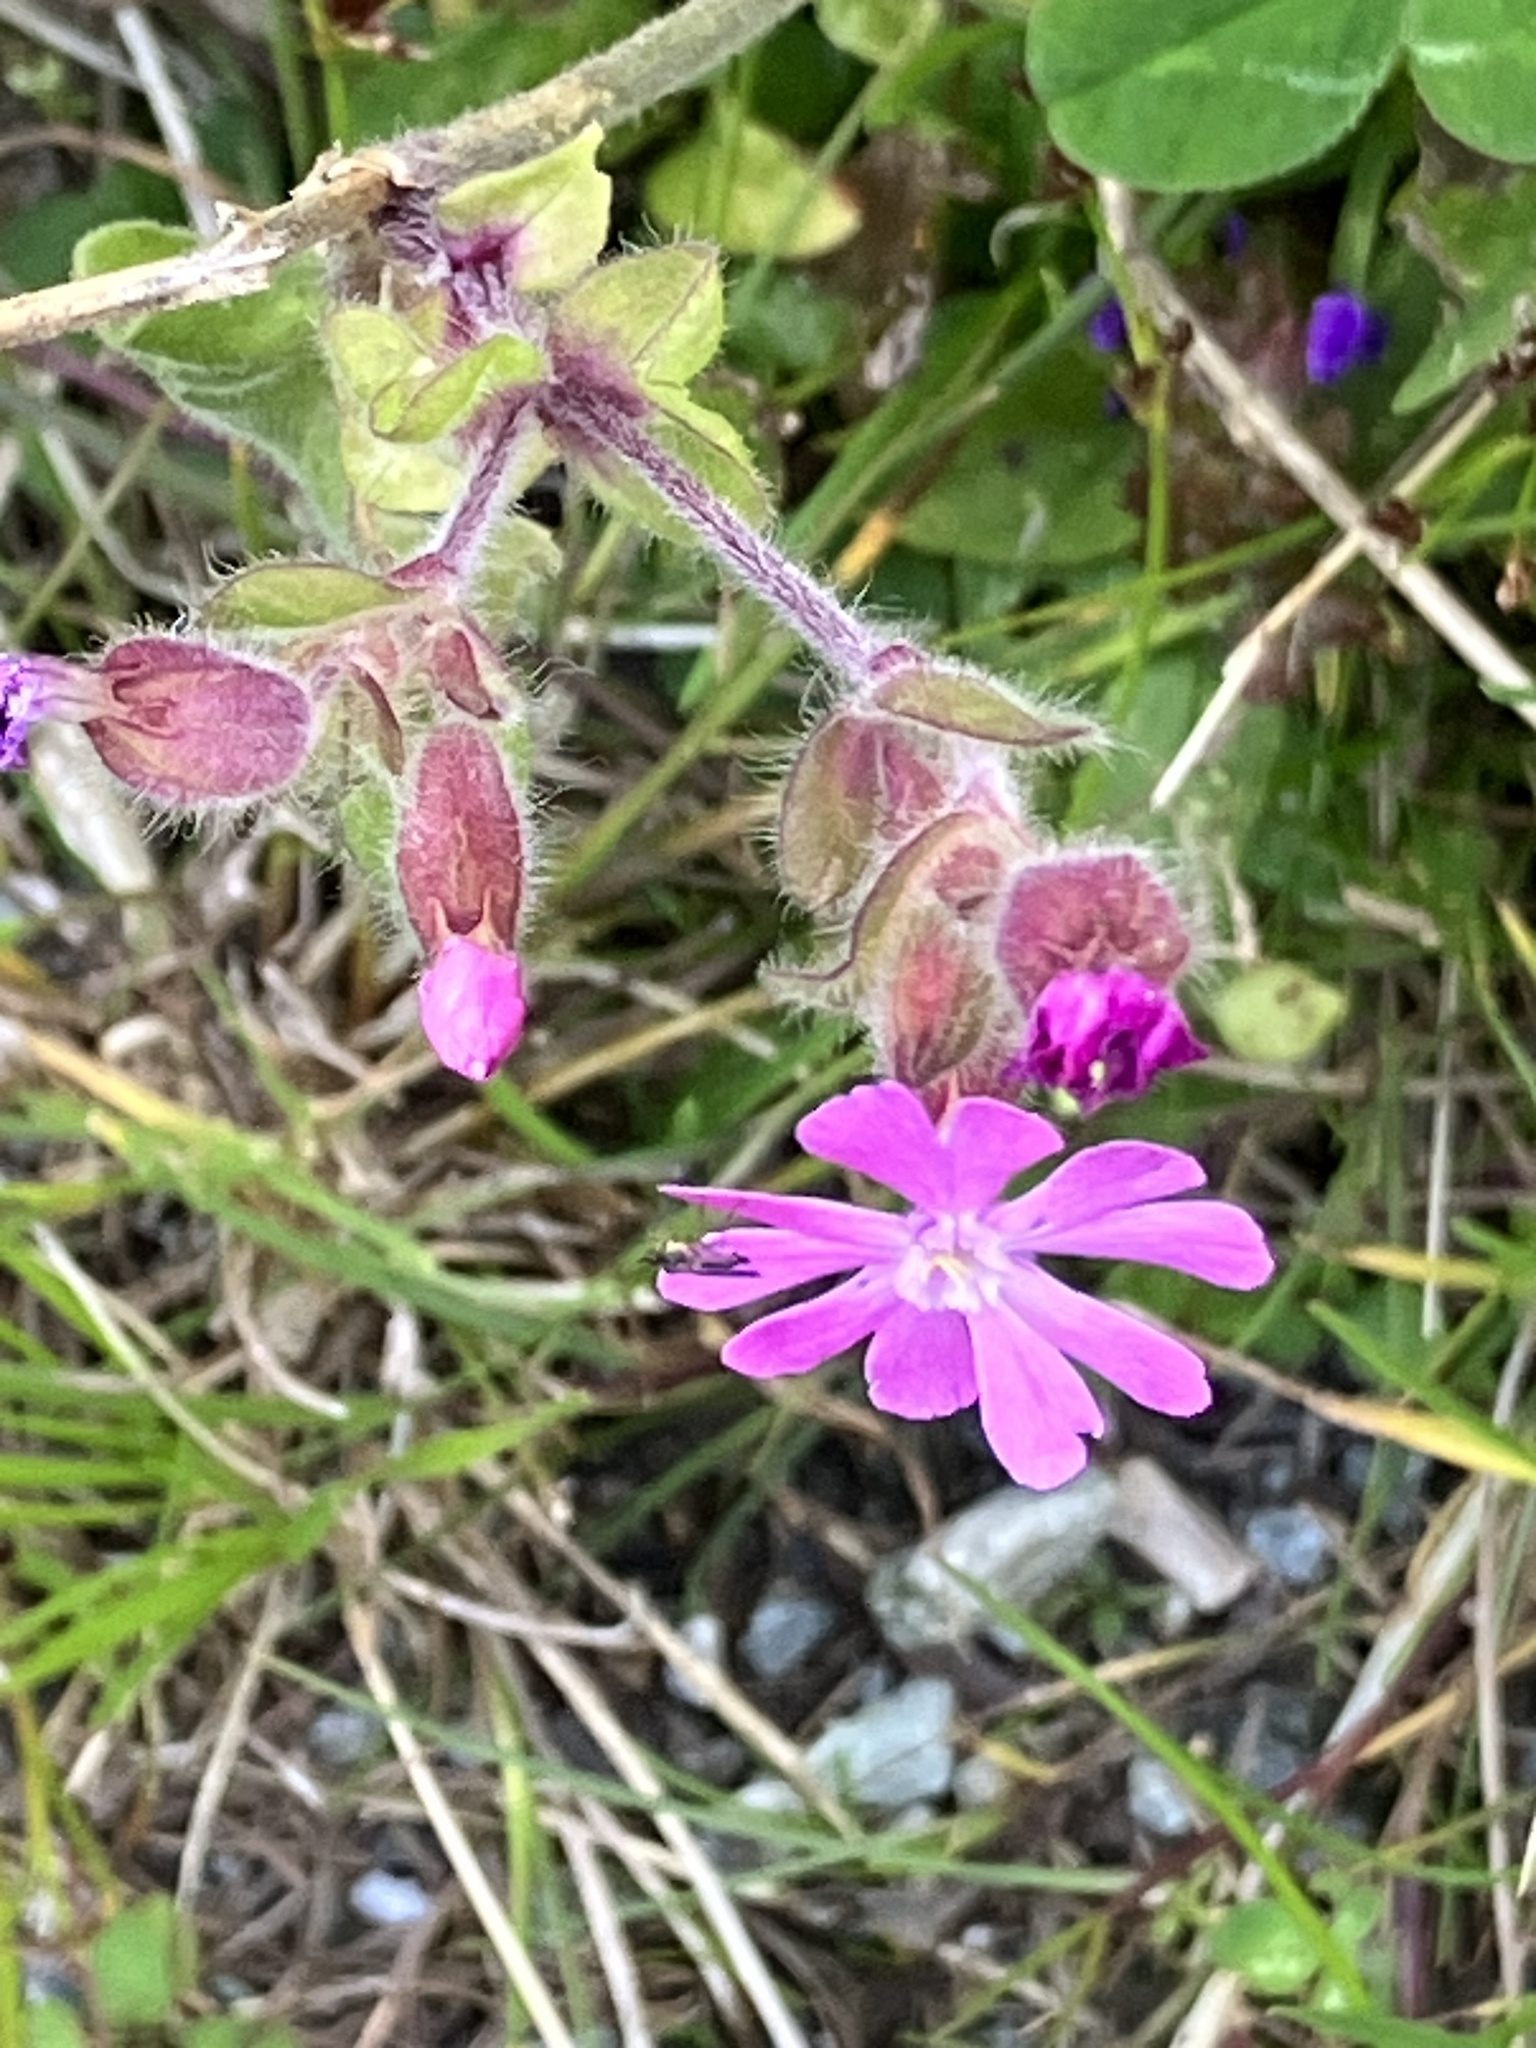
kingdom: Plantae
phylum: Tracheophyta
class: Magnoliopsida
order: Caryophyllales
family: Caryophyllaceae
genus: Silene
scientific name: Silene dioica
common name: Red campion
